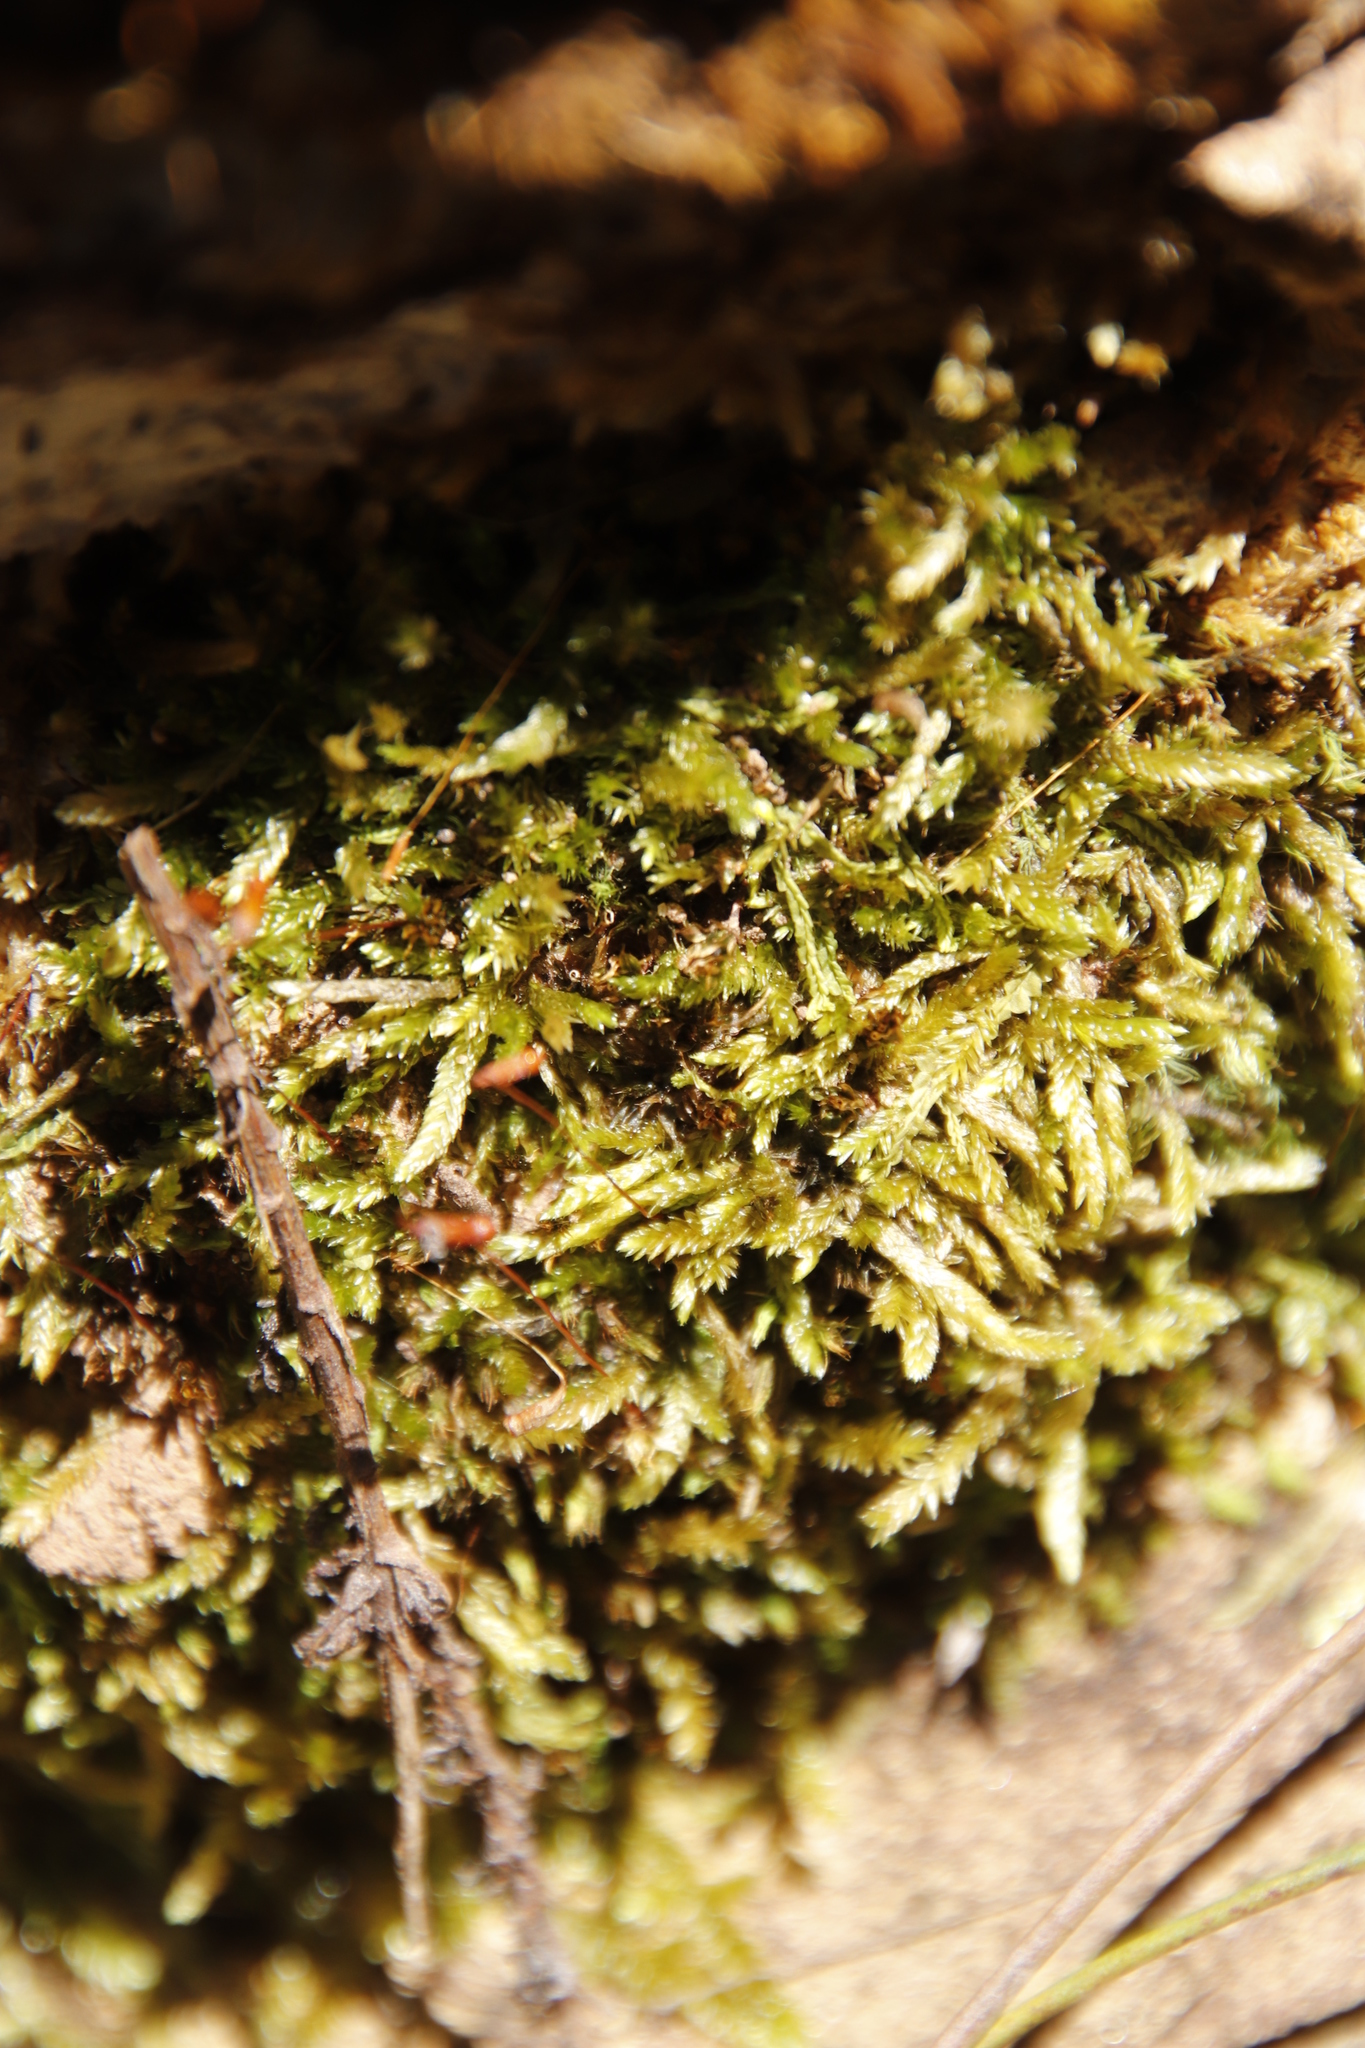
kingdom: Plantae
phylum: Bryophyta
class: Bryopsida
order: Hypnales
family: Catagoniaceae
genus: Catagonium
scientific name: Catagonium nitens
